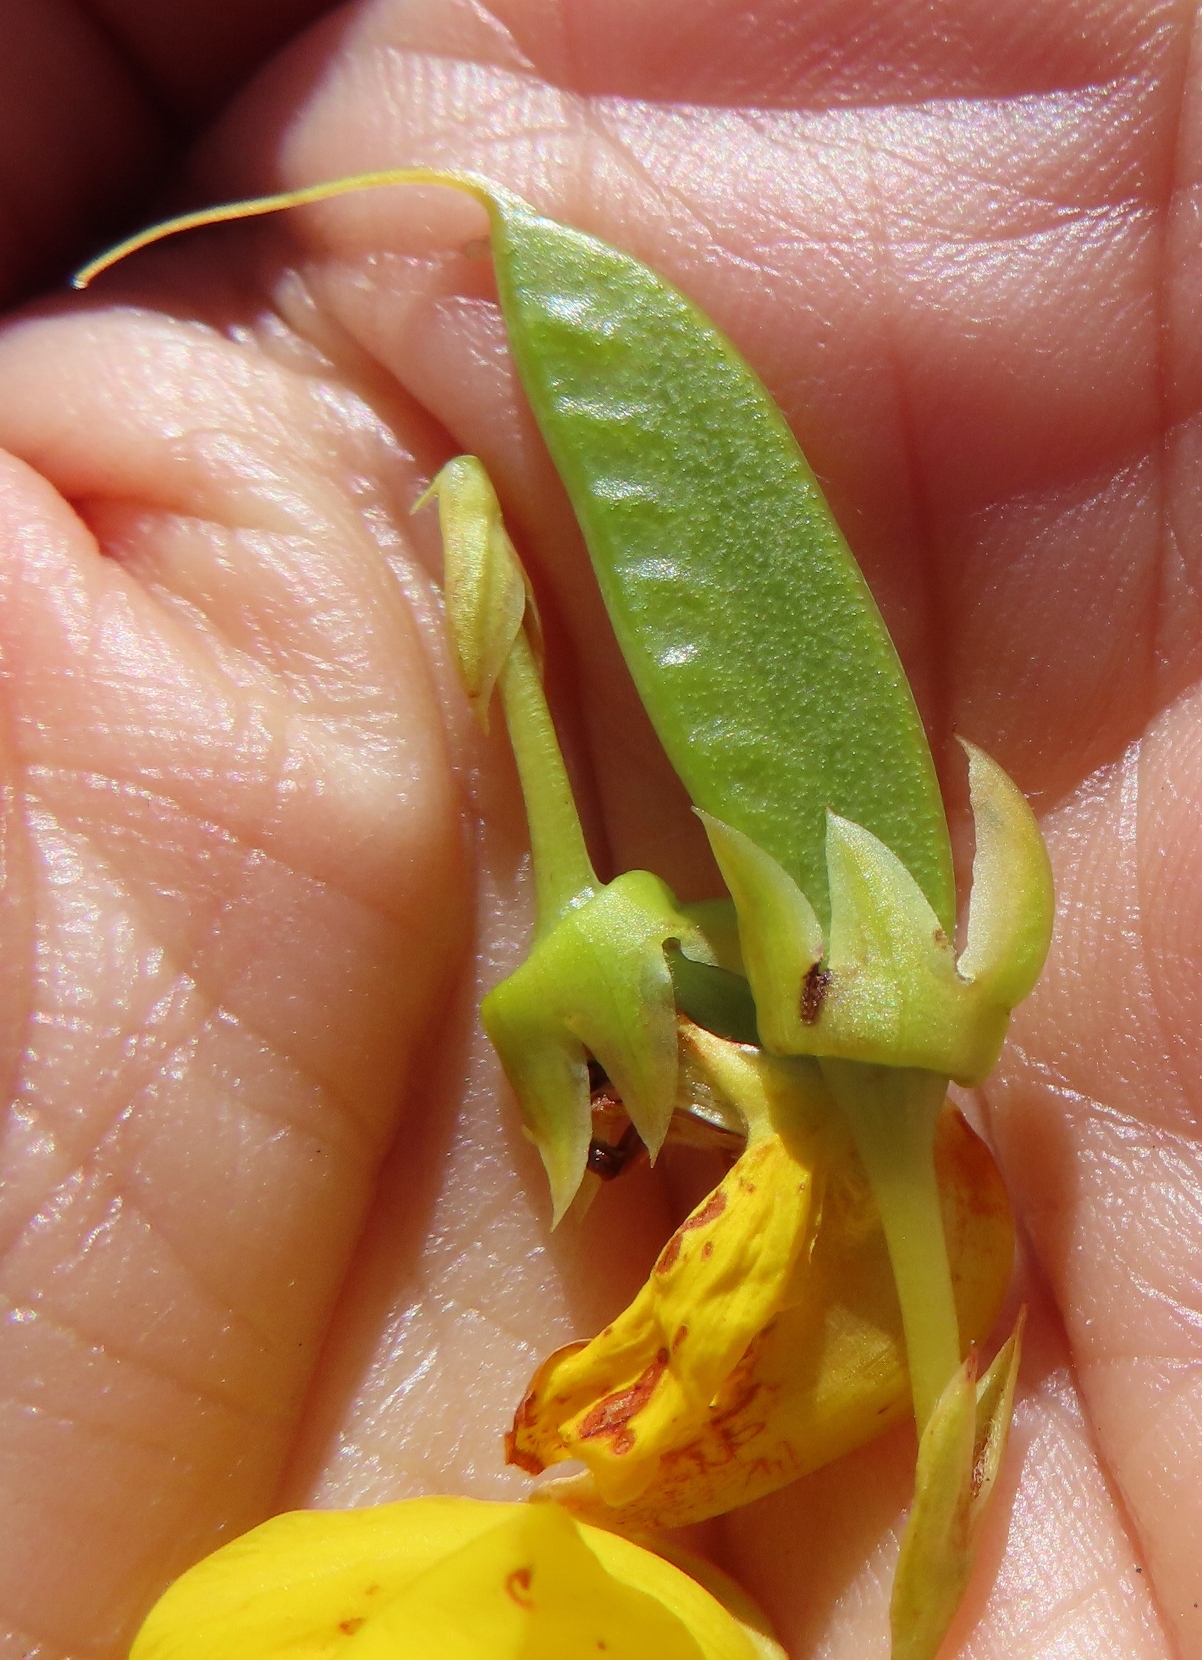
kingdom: Plantae
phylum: Tracheophyta
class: Magnoliopsida
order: Fabales
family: Fabaceae
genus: Cyclopia
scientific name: Cyclopia genistoides
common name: Honeybush tea
